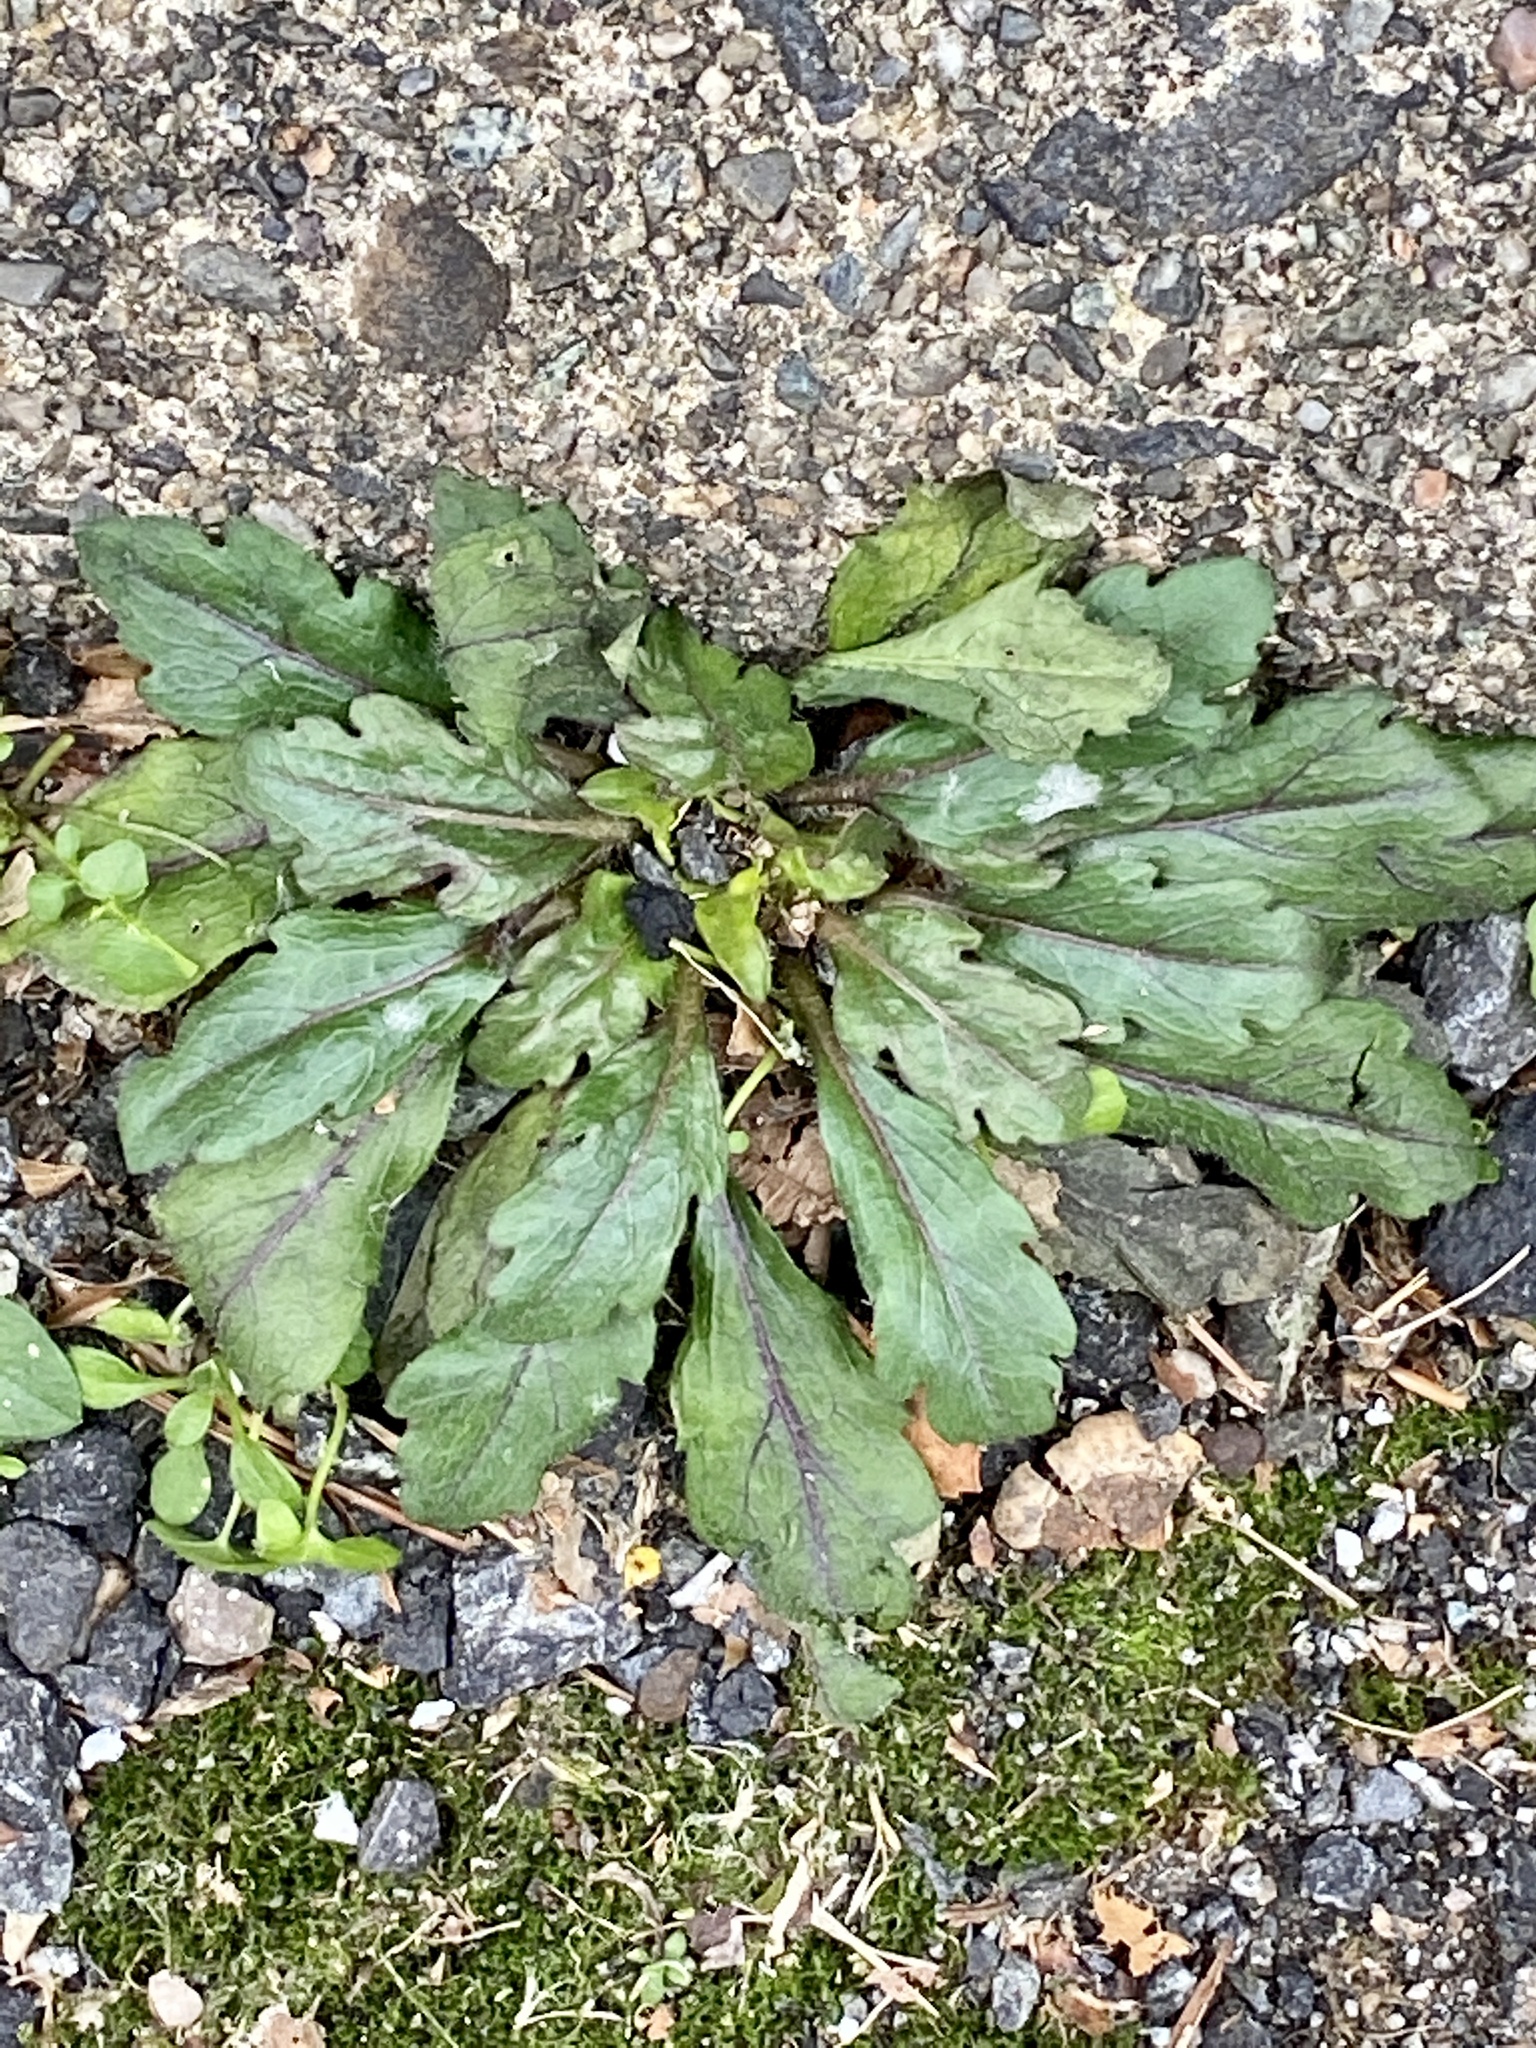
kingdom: Plantae
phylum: Tracheophyta
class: Magnoliopsida
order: Asterales
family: Asteraceae
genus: Erigeron
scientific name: Erigeron canadensis
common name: Canadian fleabane
